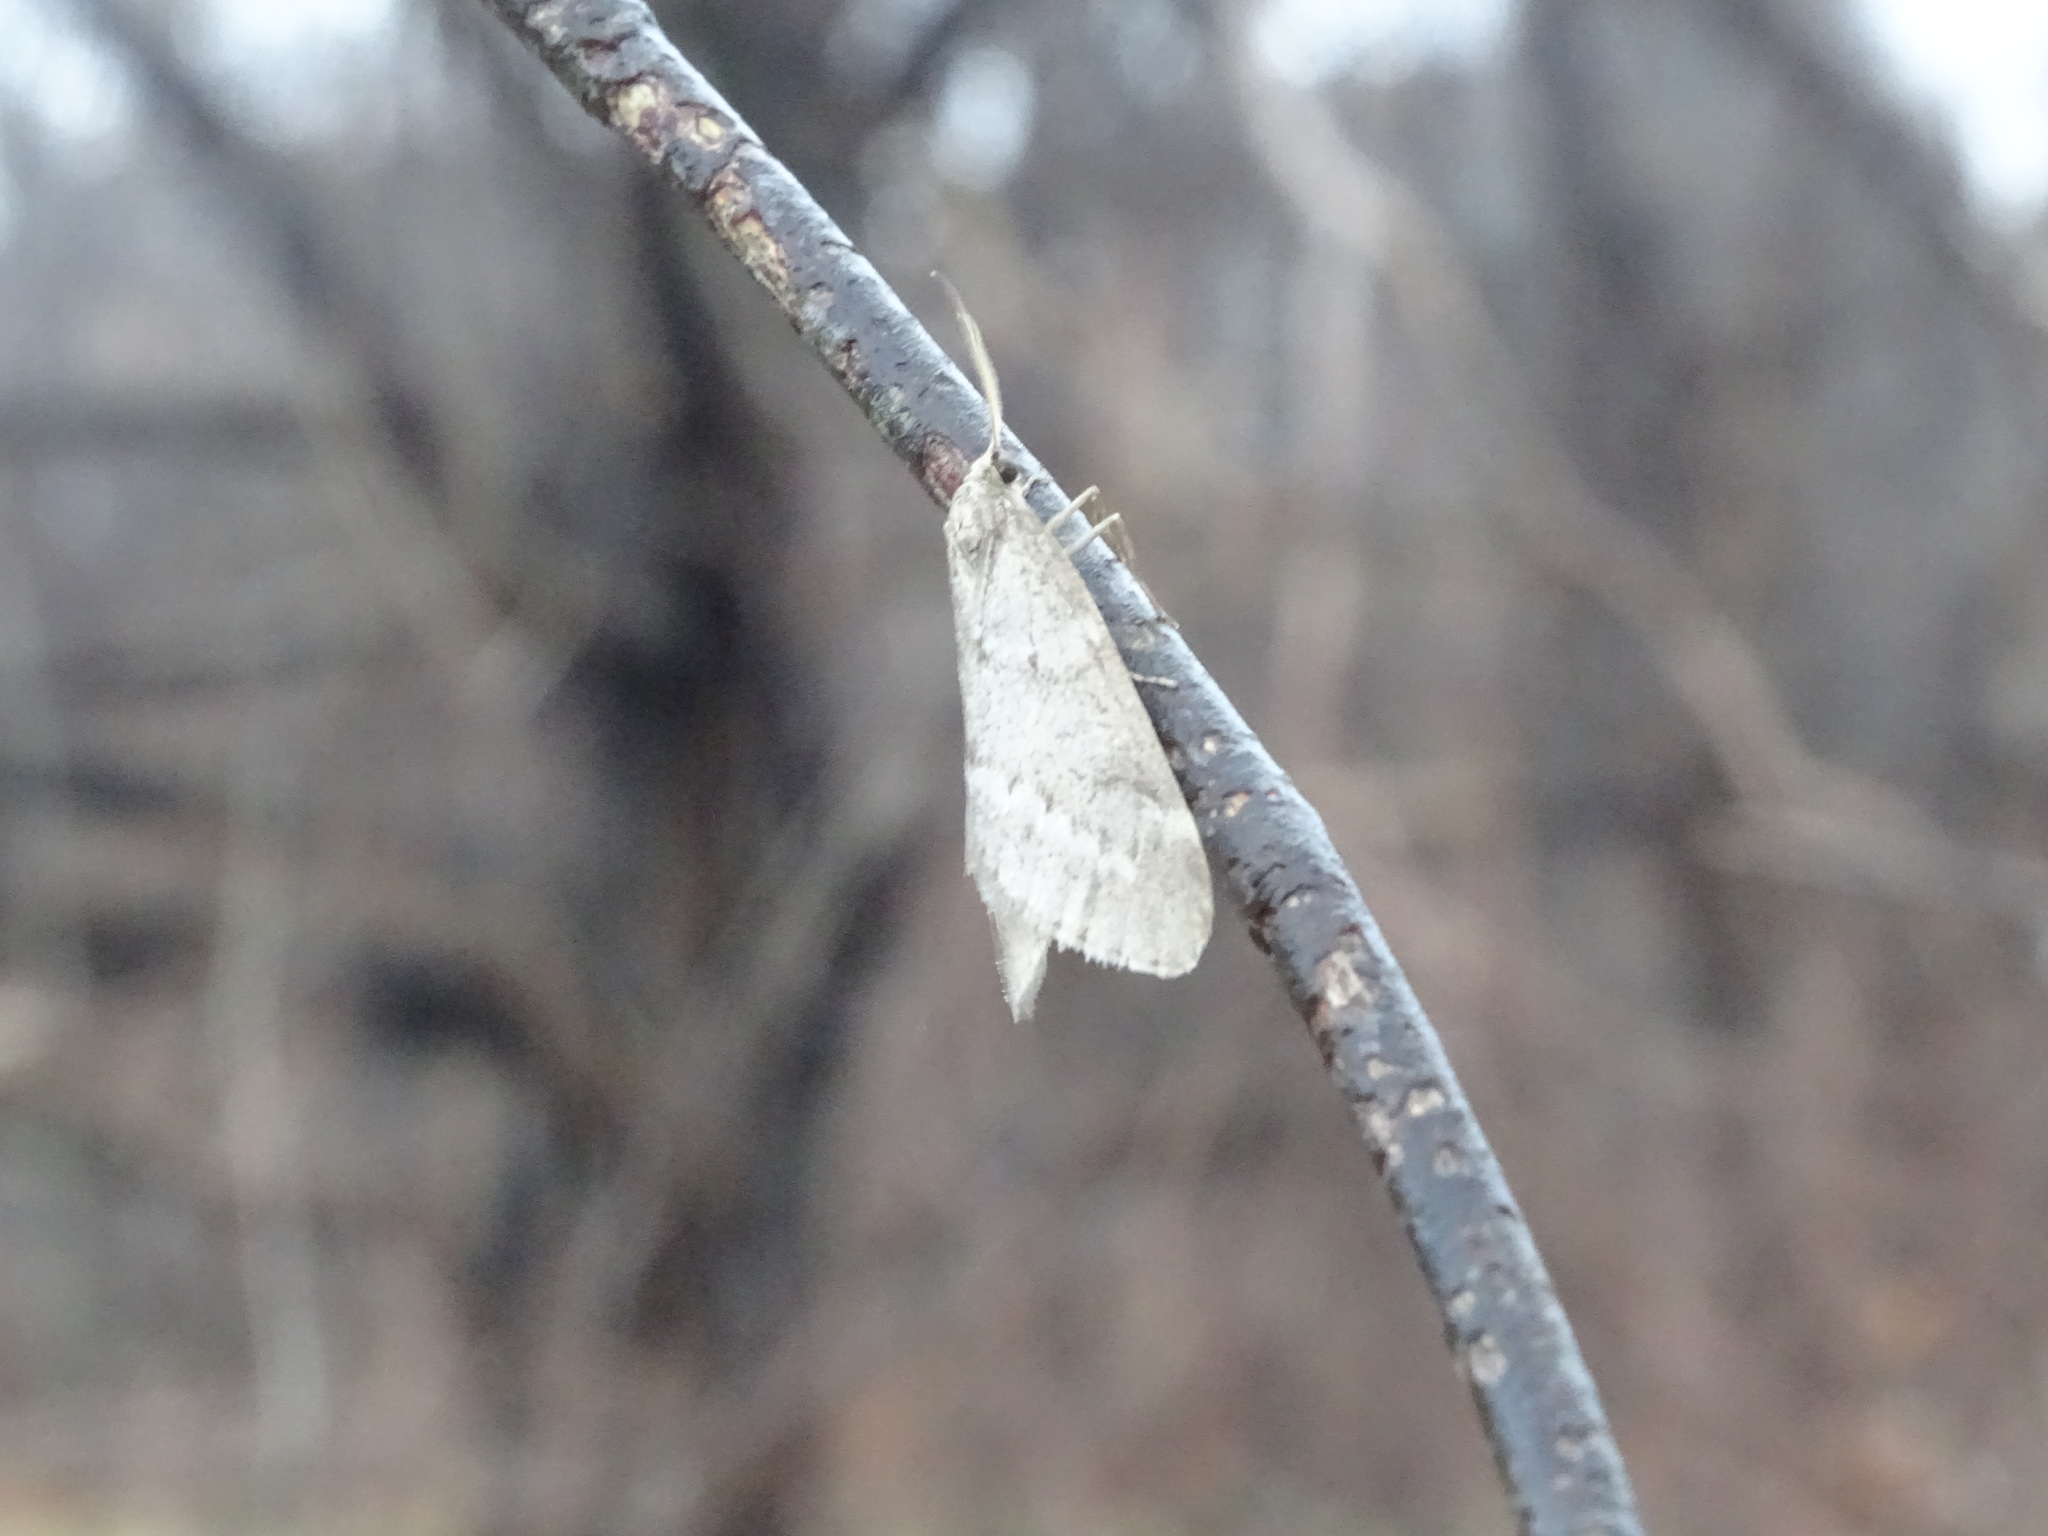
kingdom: Animalia
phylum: Arthropoda
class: Insecta
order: Lepidoptera
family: Geometridae
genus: Alsophila
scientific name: Alsophila pometaria
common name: Fall cankerworm
